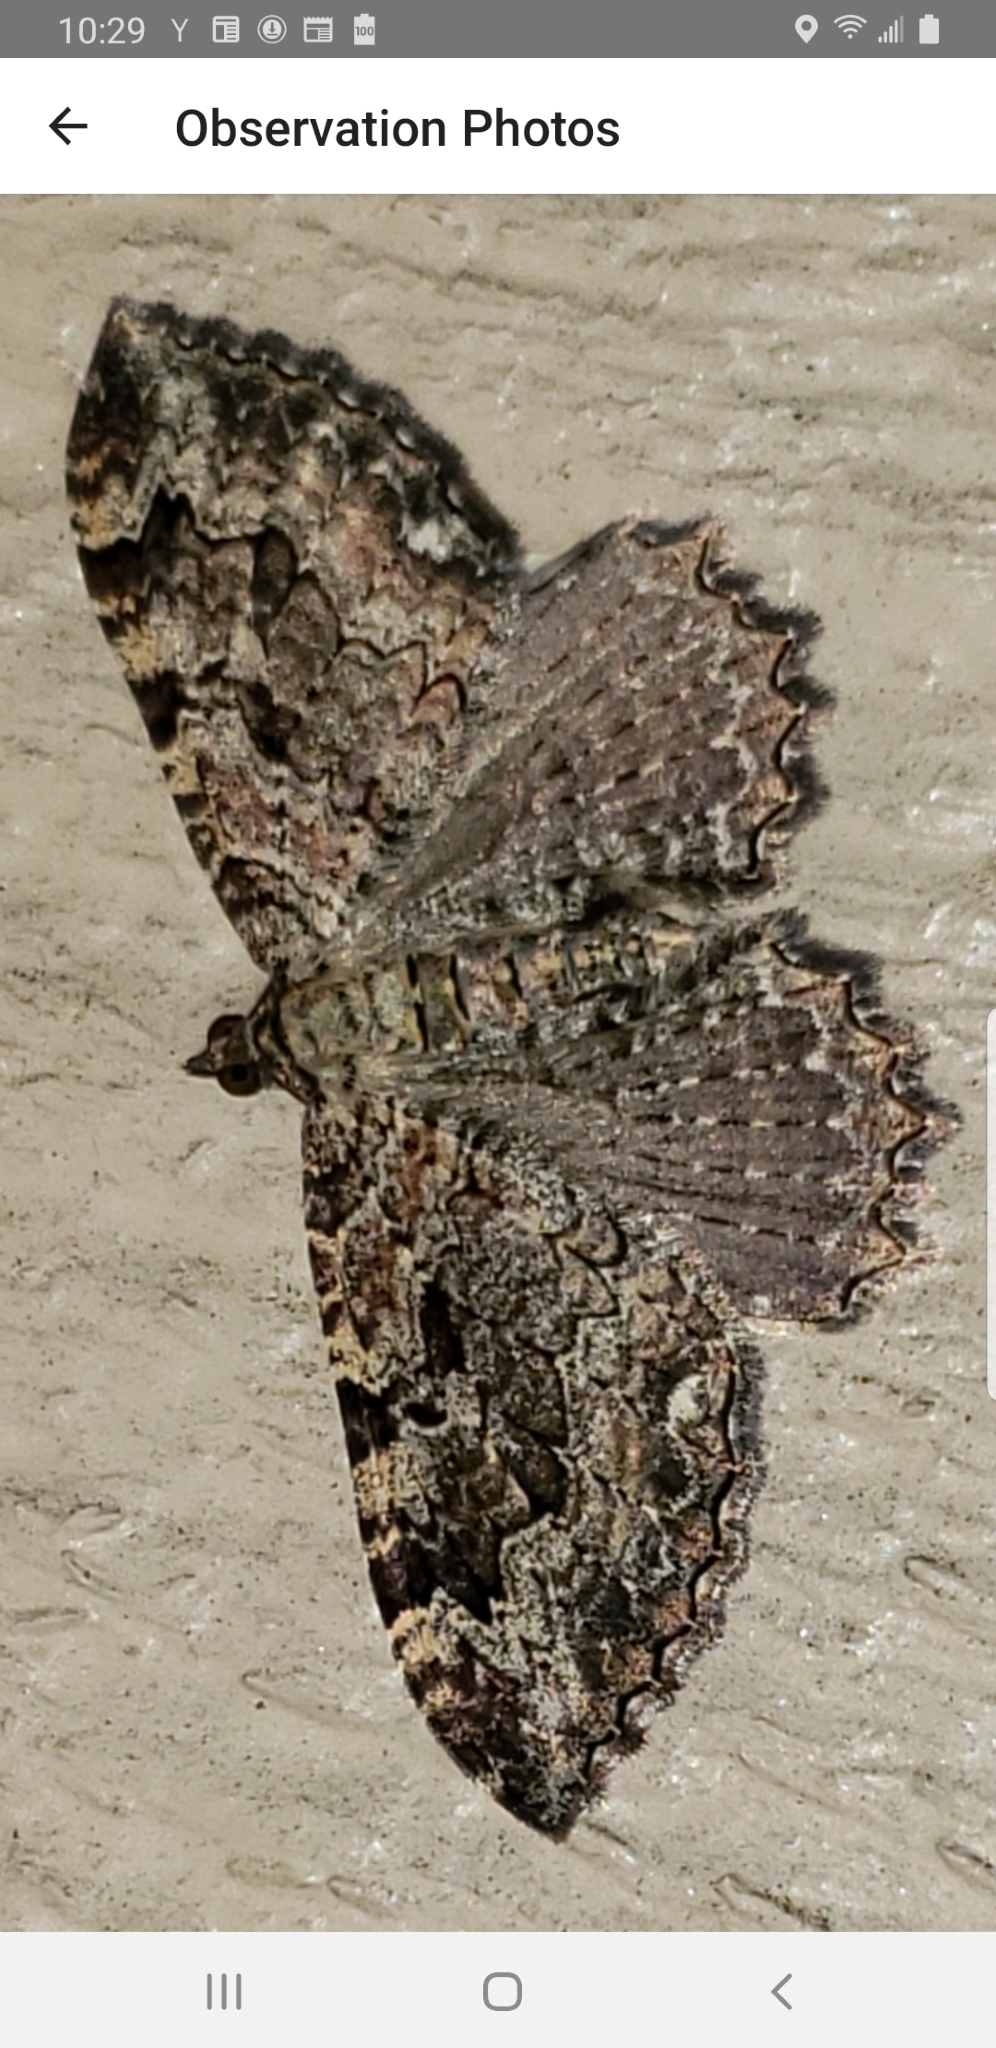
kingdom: Animalia
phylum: Arthropoda
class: Insecta
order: Lepidoptera
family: Geometridae
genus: Rheumaptera
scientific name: Rheumaptera
